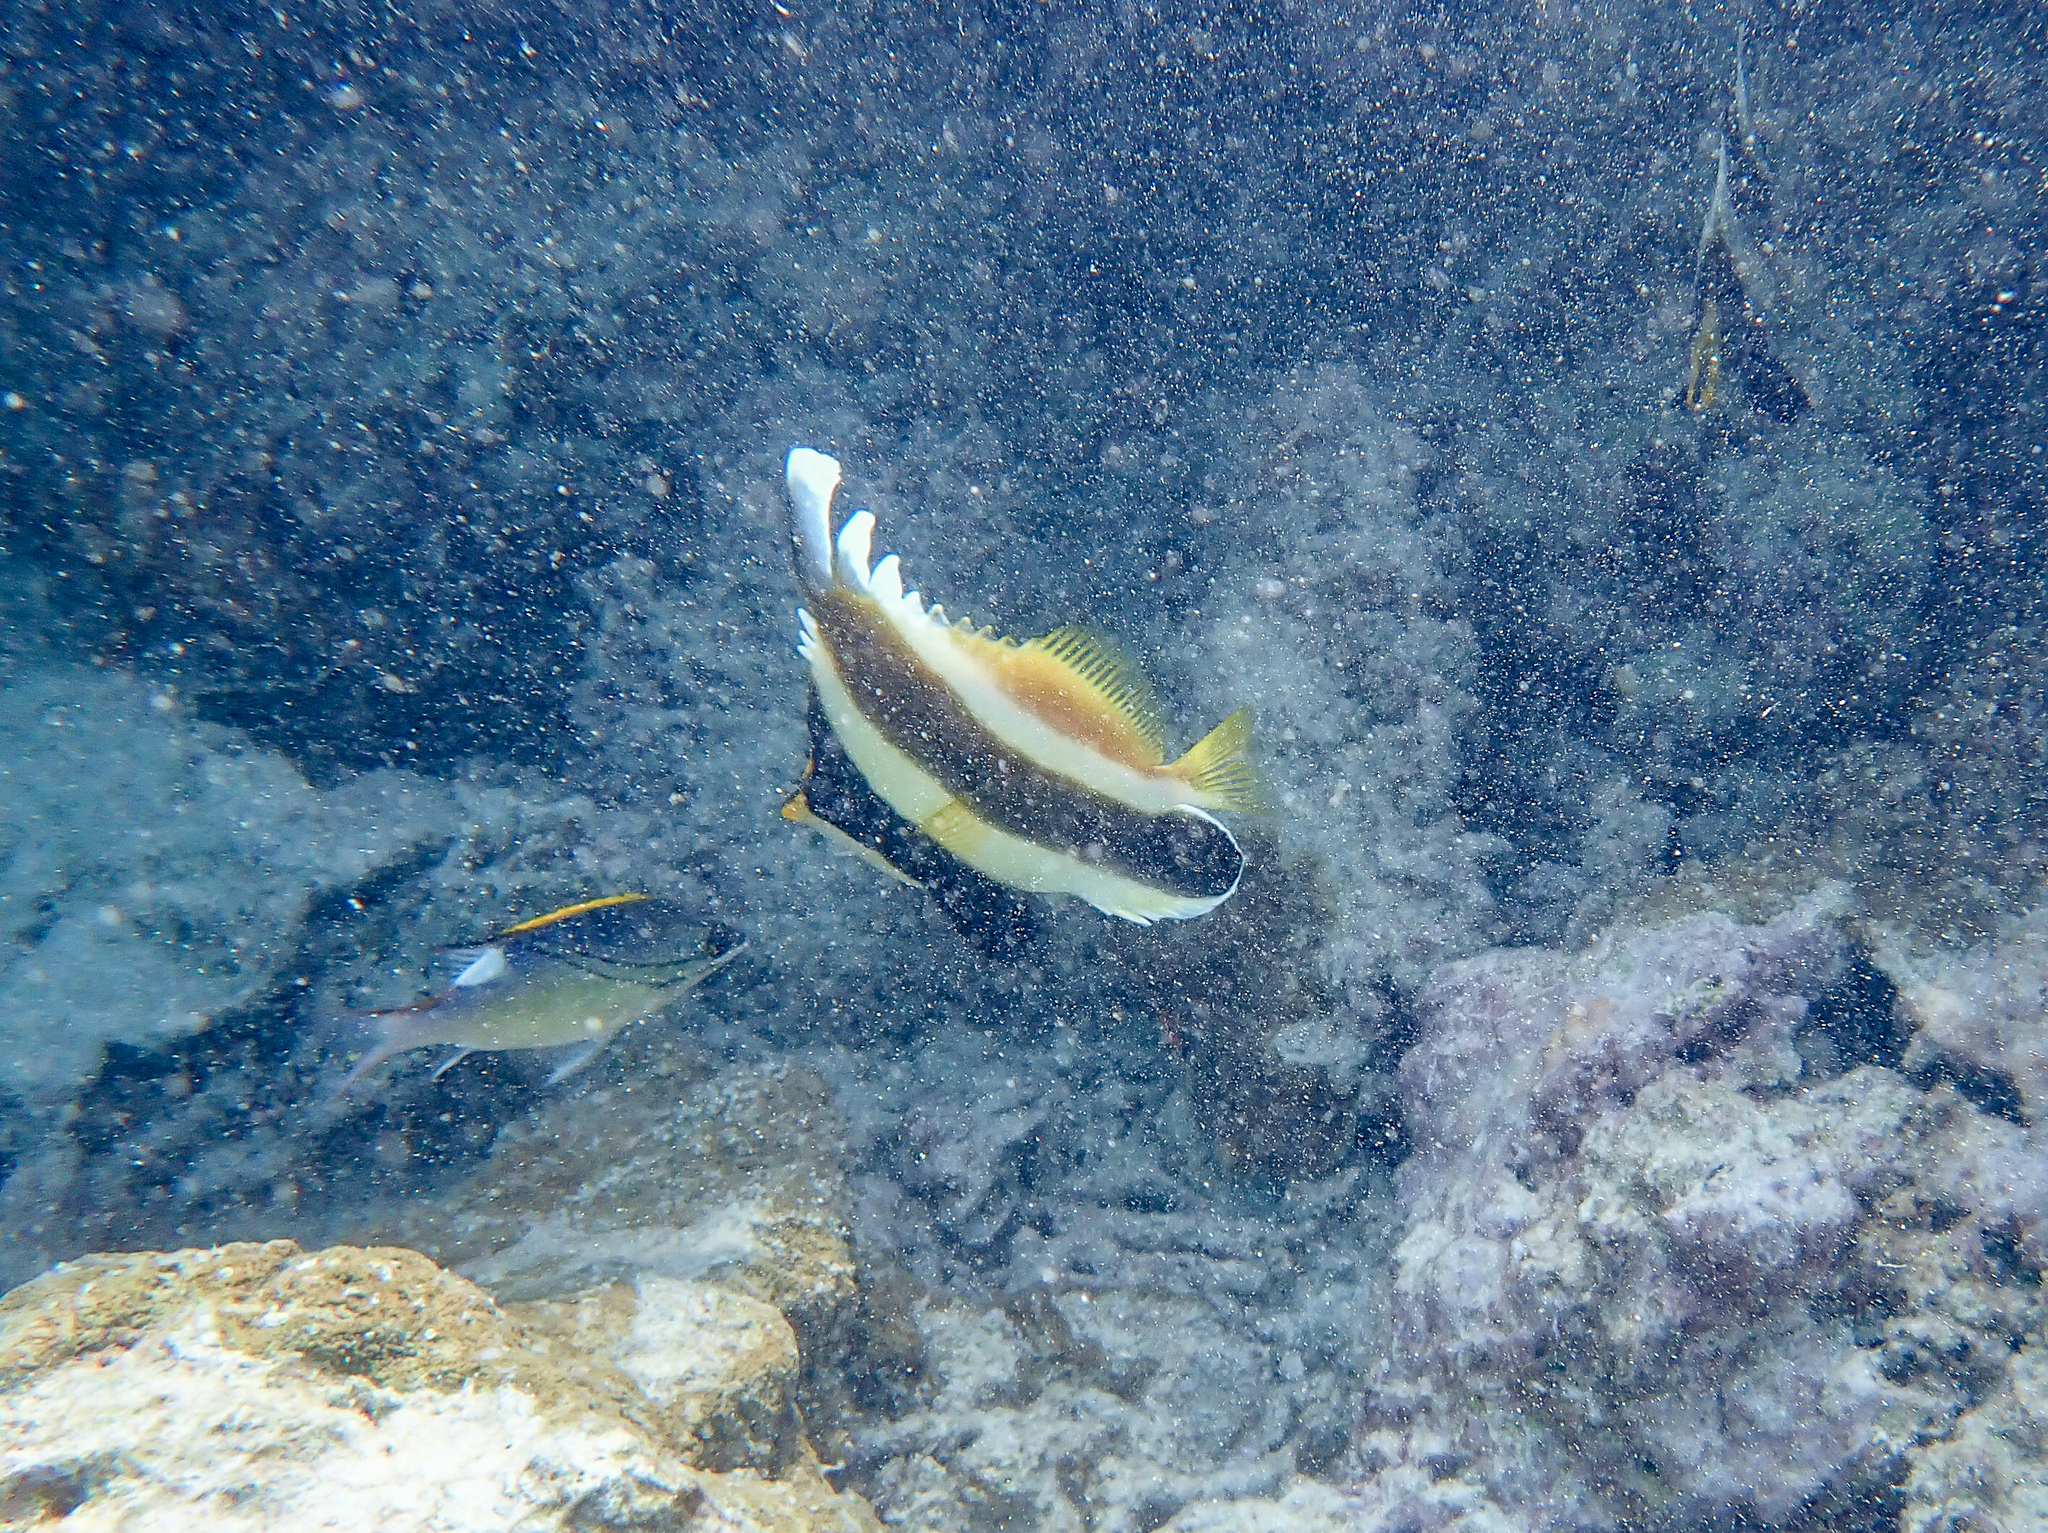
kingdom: Animalia
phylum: Chordata
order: Perciformes
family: Chaetodontidae
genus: Heniochus
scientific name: Heniochus chrysostomus
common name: Horned bannerfish
